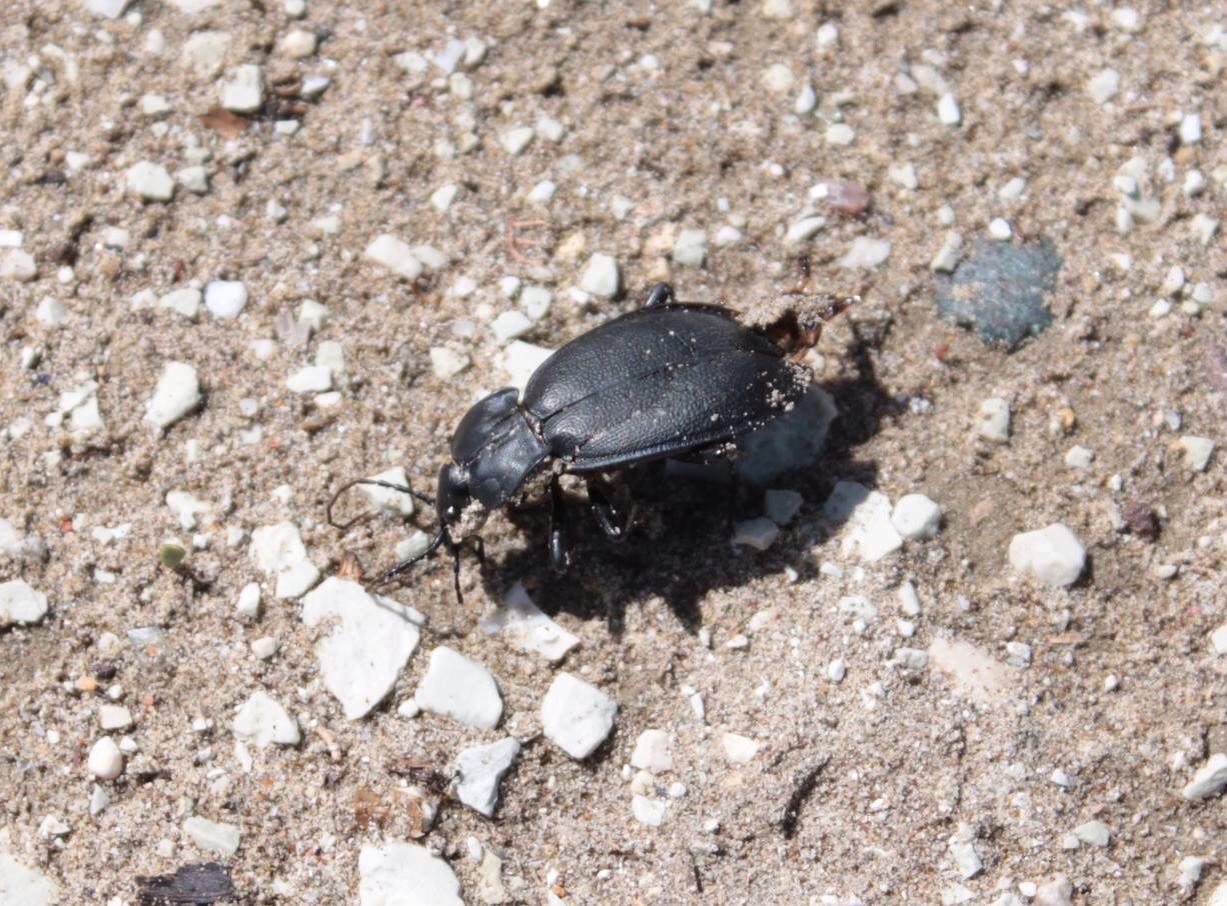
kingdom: Animalia
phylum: Arthropoda
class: Insecta
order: Coleoptera
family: Carabidae
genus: Carabus
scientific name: Carabus coriaceus
